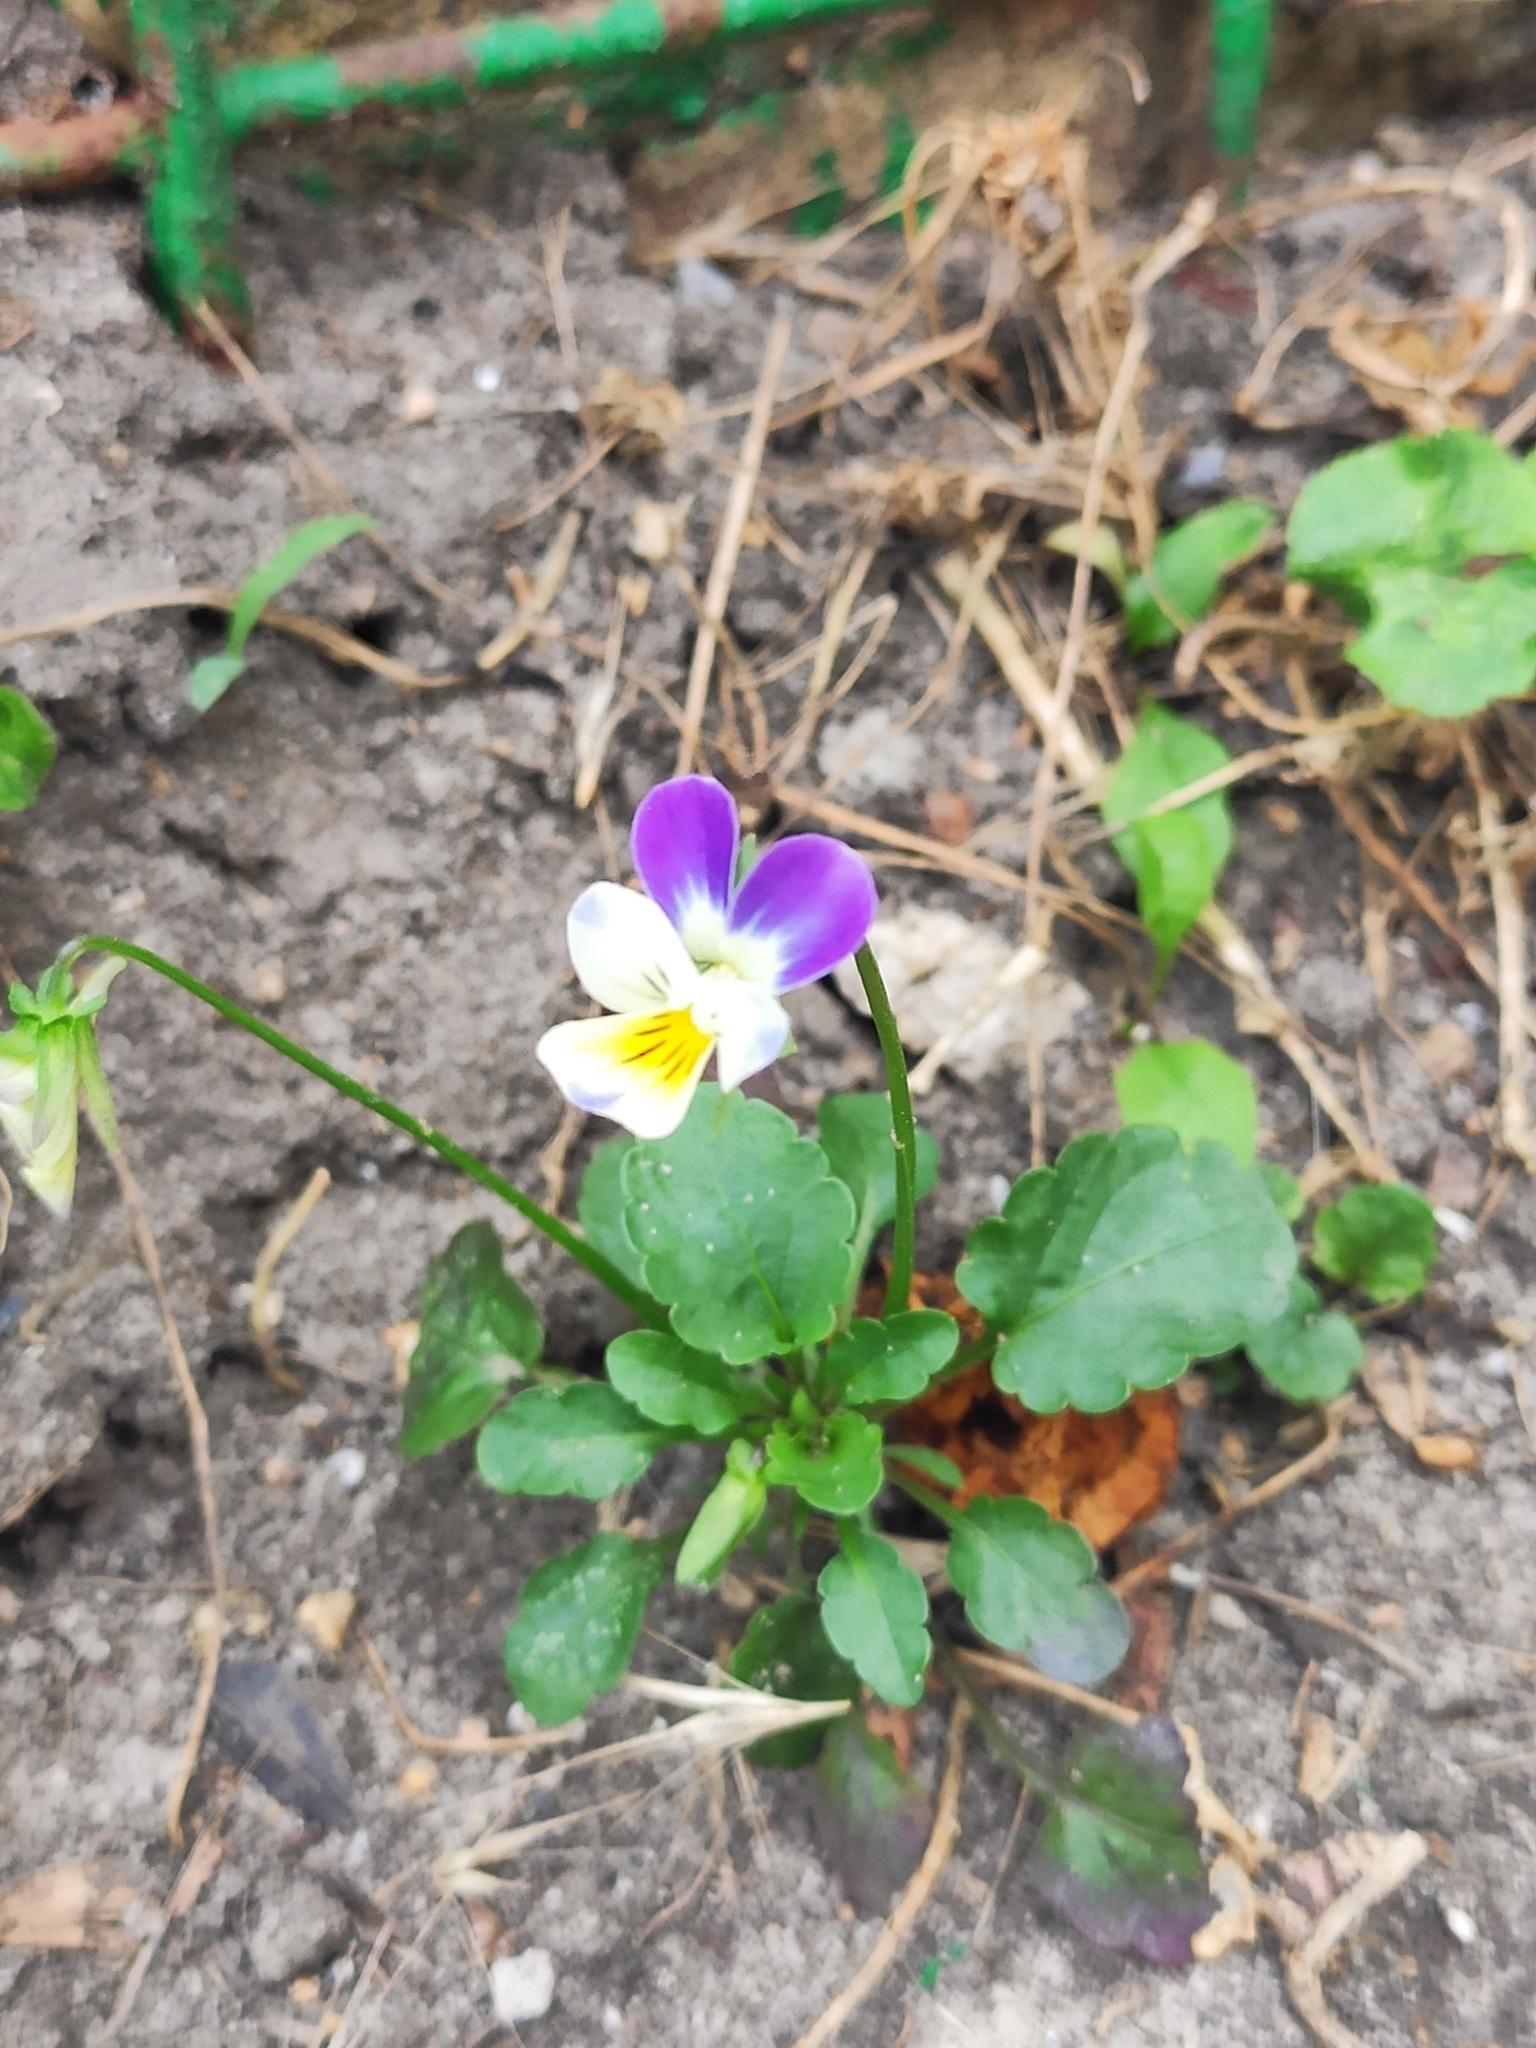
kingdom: Plantae
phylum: Tracheophyta
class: Magnoliopsida
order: Malpighiales
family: Violaceae
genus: Viola
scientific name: Viola arvensis
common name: Field pansy
